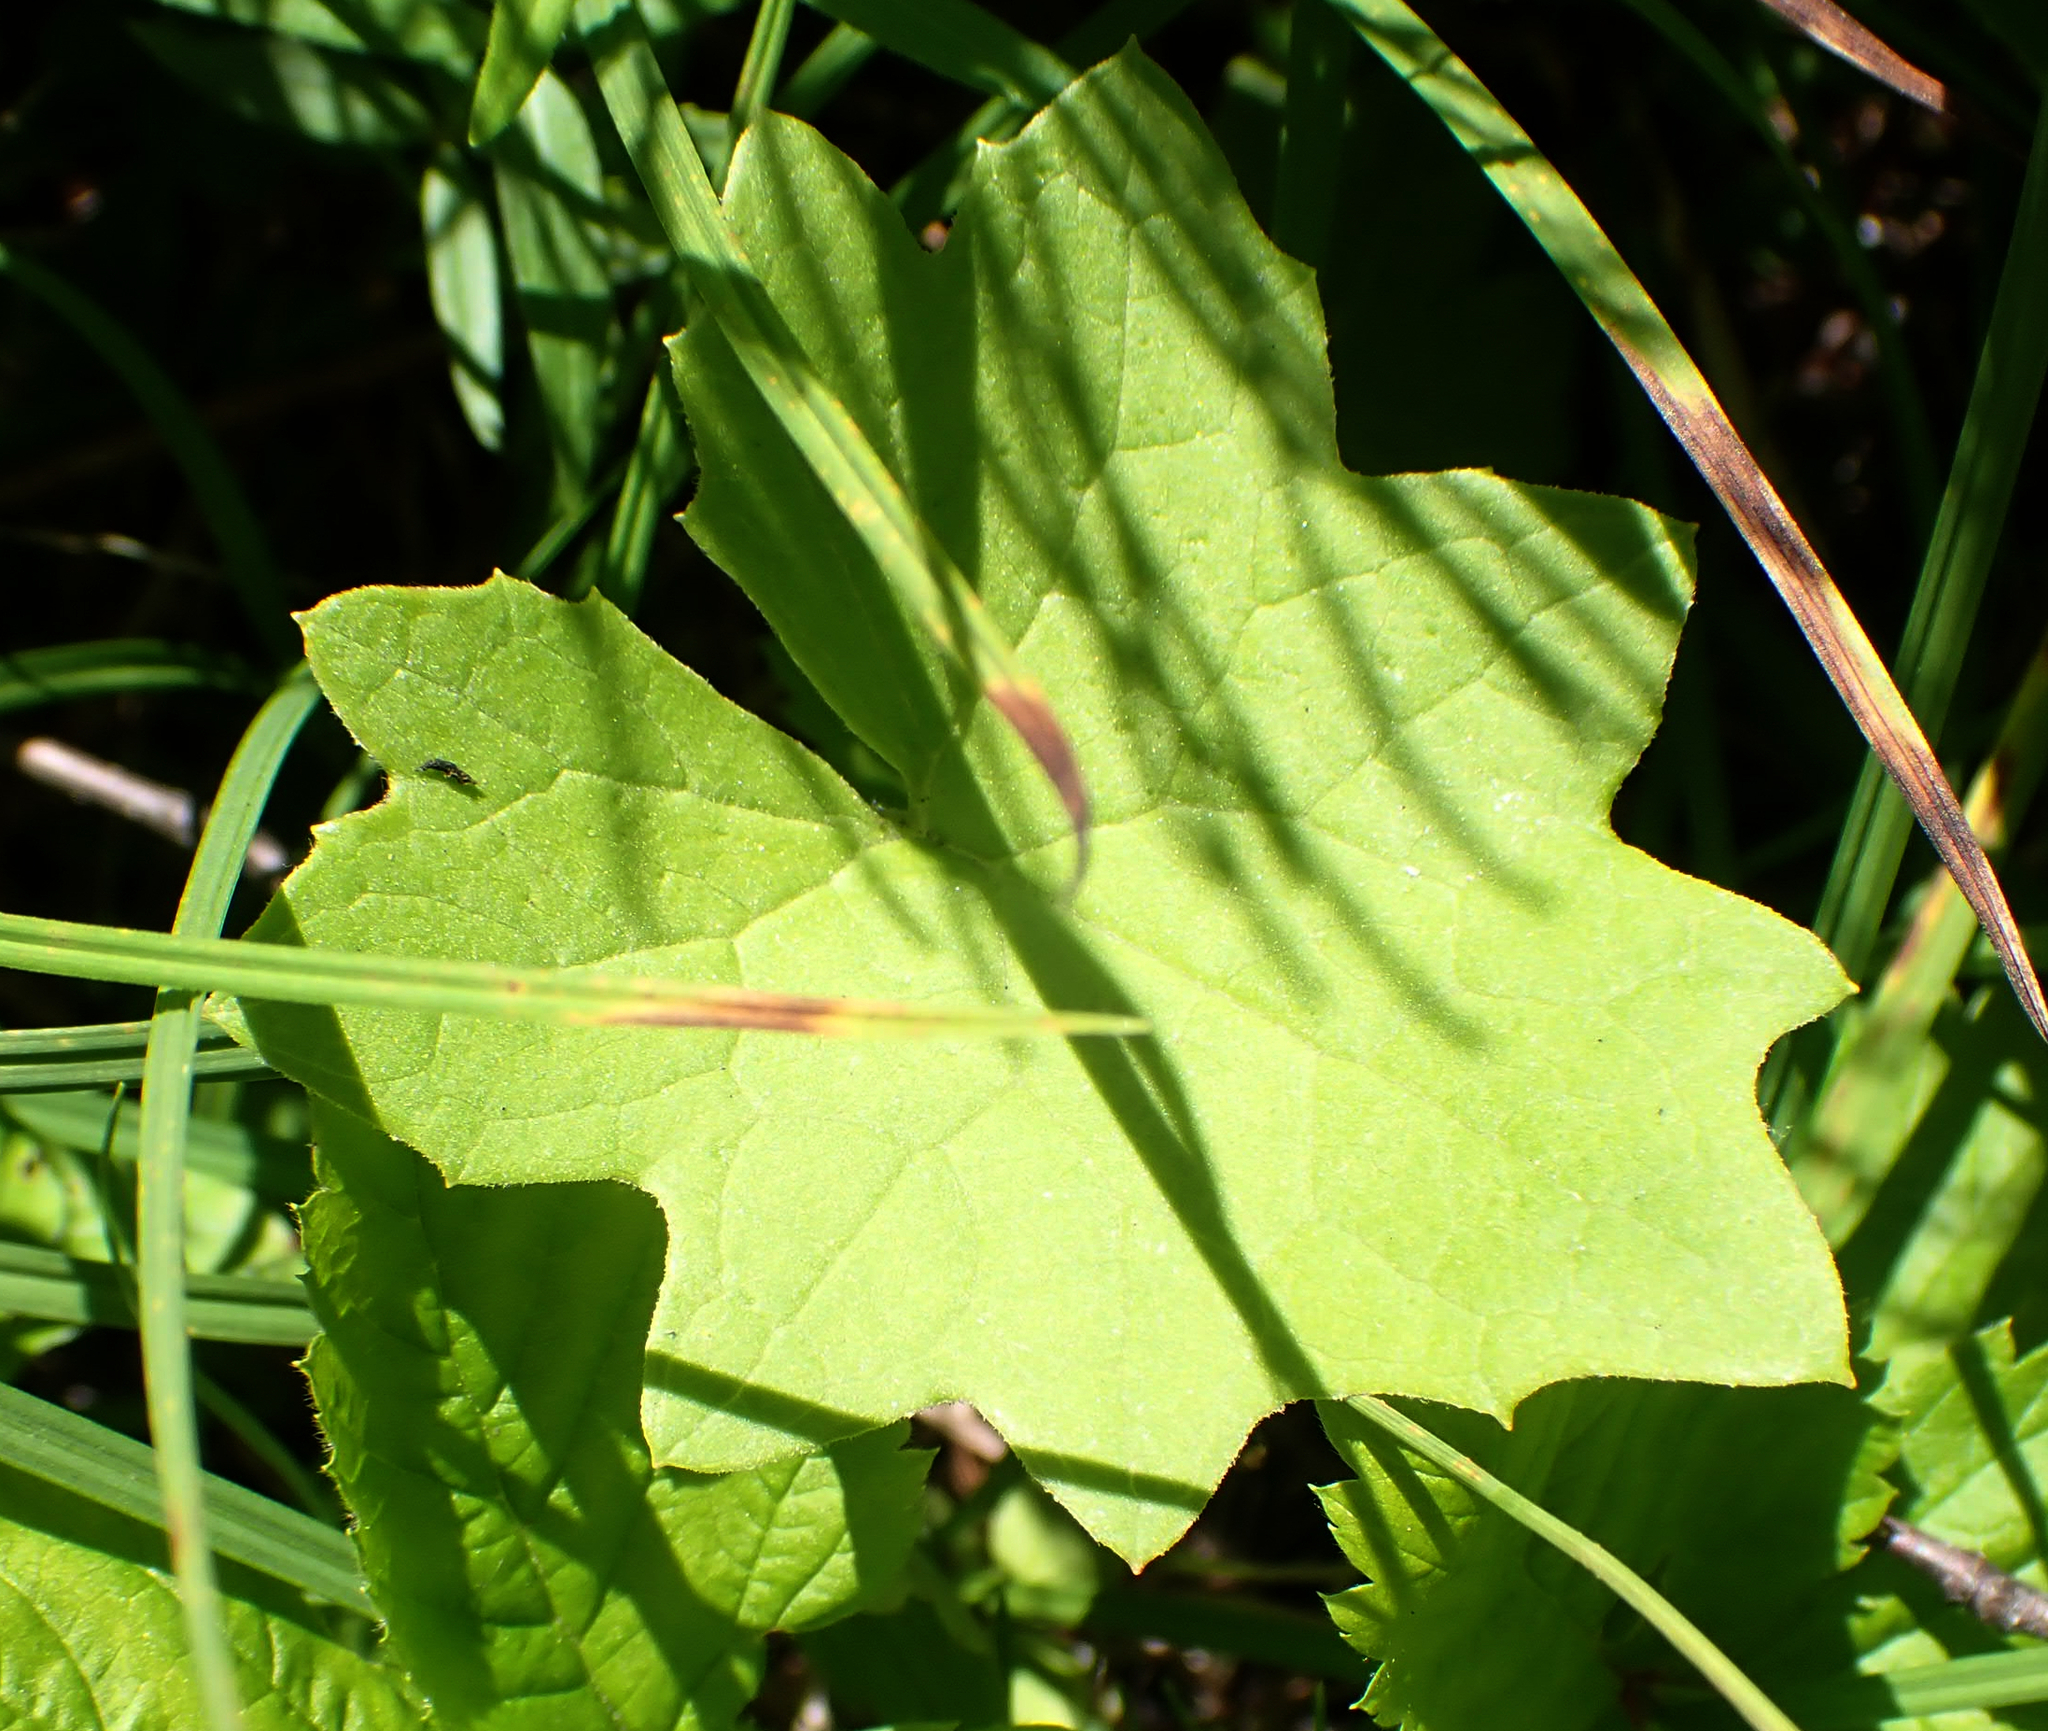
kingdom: Plantae
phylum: Tracheophyta
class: Magnoliopsida
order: Asterales
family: Asteraceae
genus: Petasites
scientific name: Petasites frigidus
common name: Arctic butterbur
